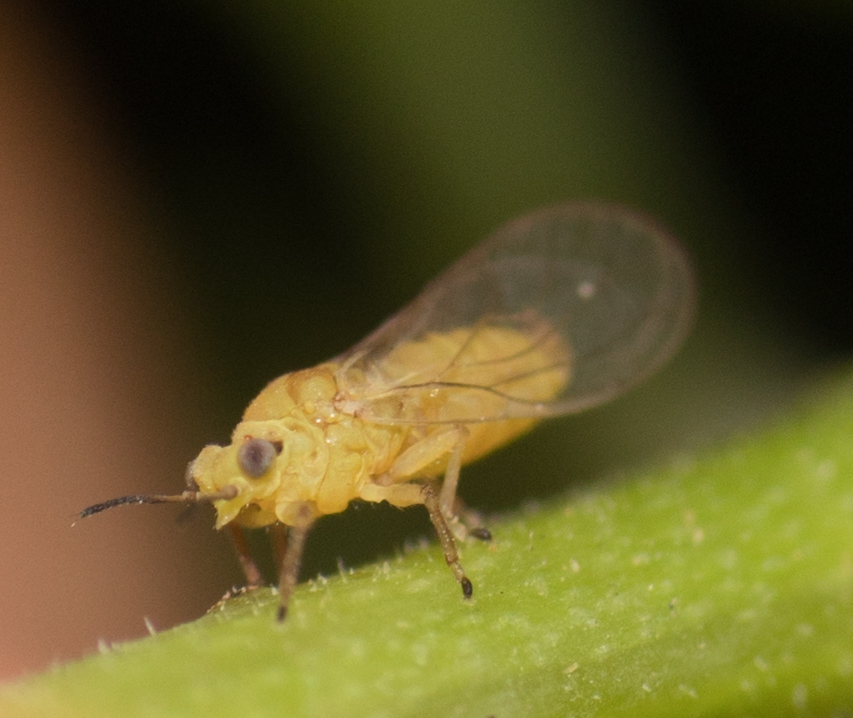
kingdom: Animalia
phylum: Arthropoda
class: Insecta
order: Hemiptera
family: Calophyidae
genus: Calophya
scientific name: Calophya schini
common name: Pepper tree psyllid
